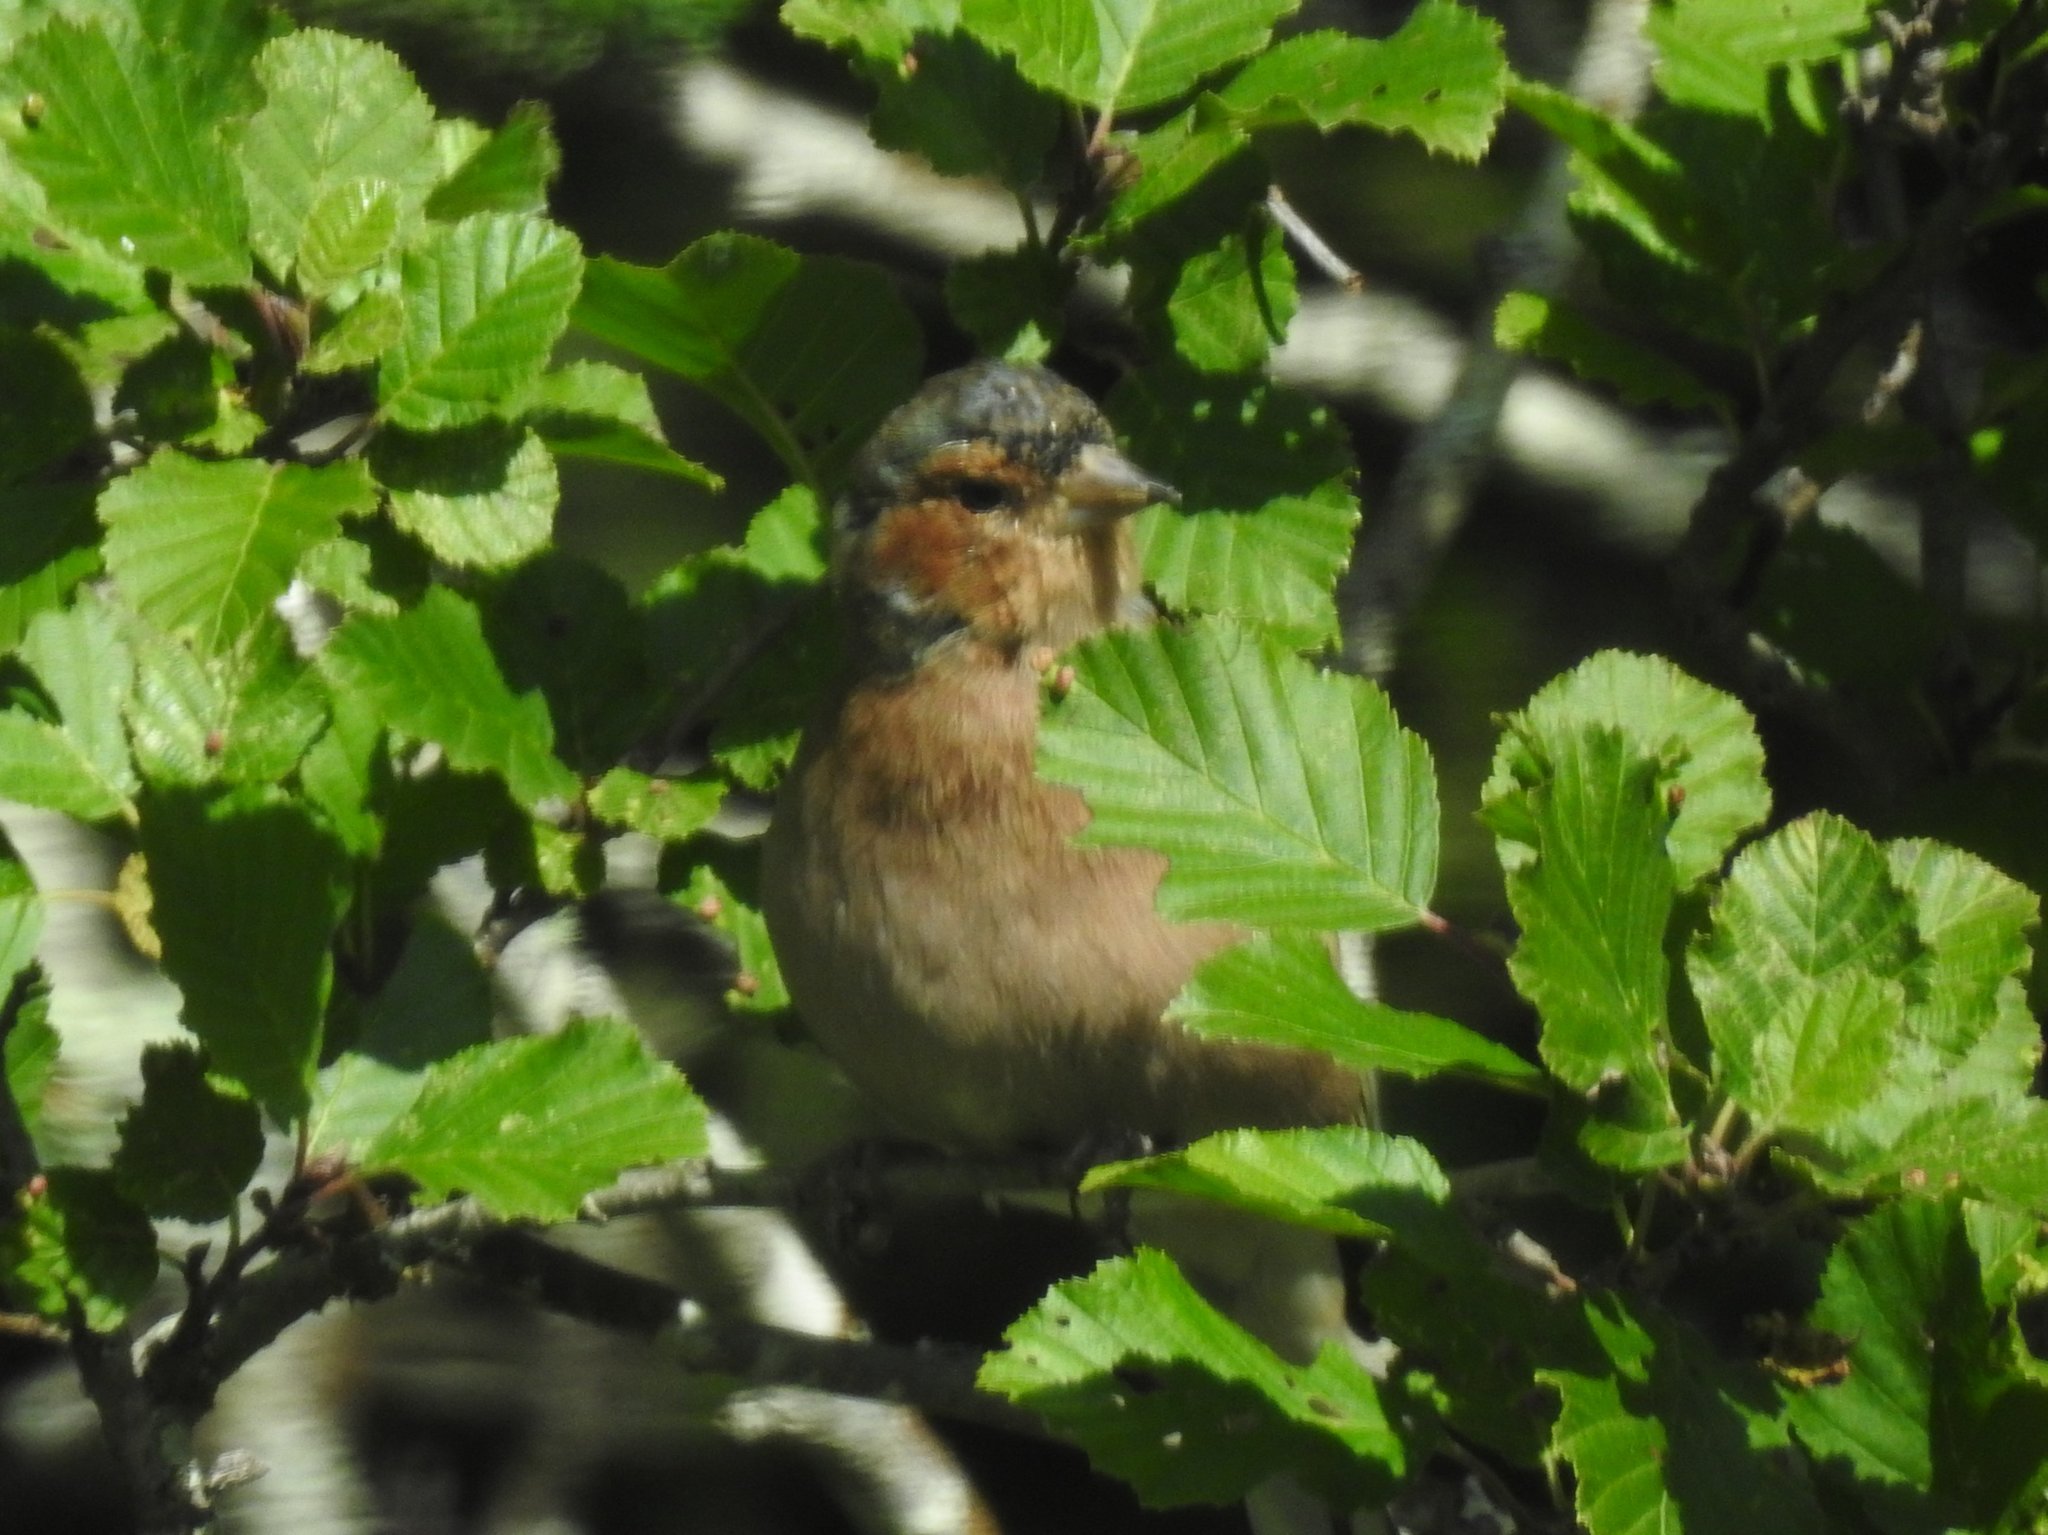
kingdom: Animalia
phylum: Chordata
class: Aves
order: Passeriformes
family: Fringillidae
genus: Fringilla
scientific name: Fringilla coelebs
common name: Common chaffinch
